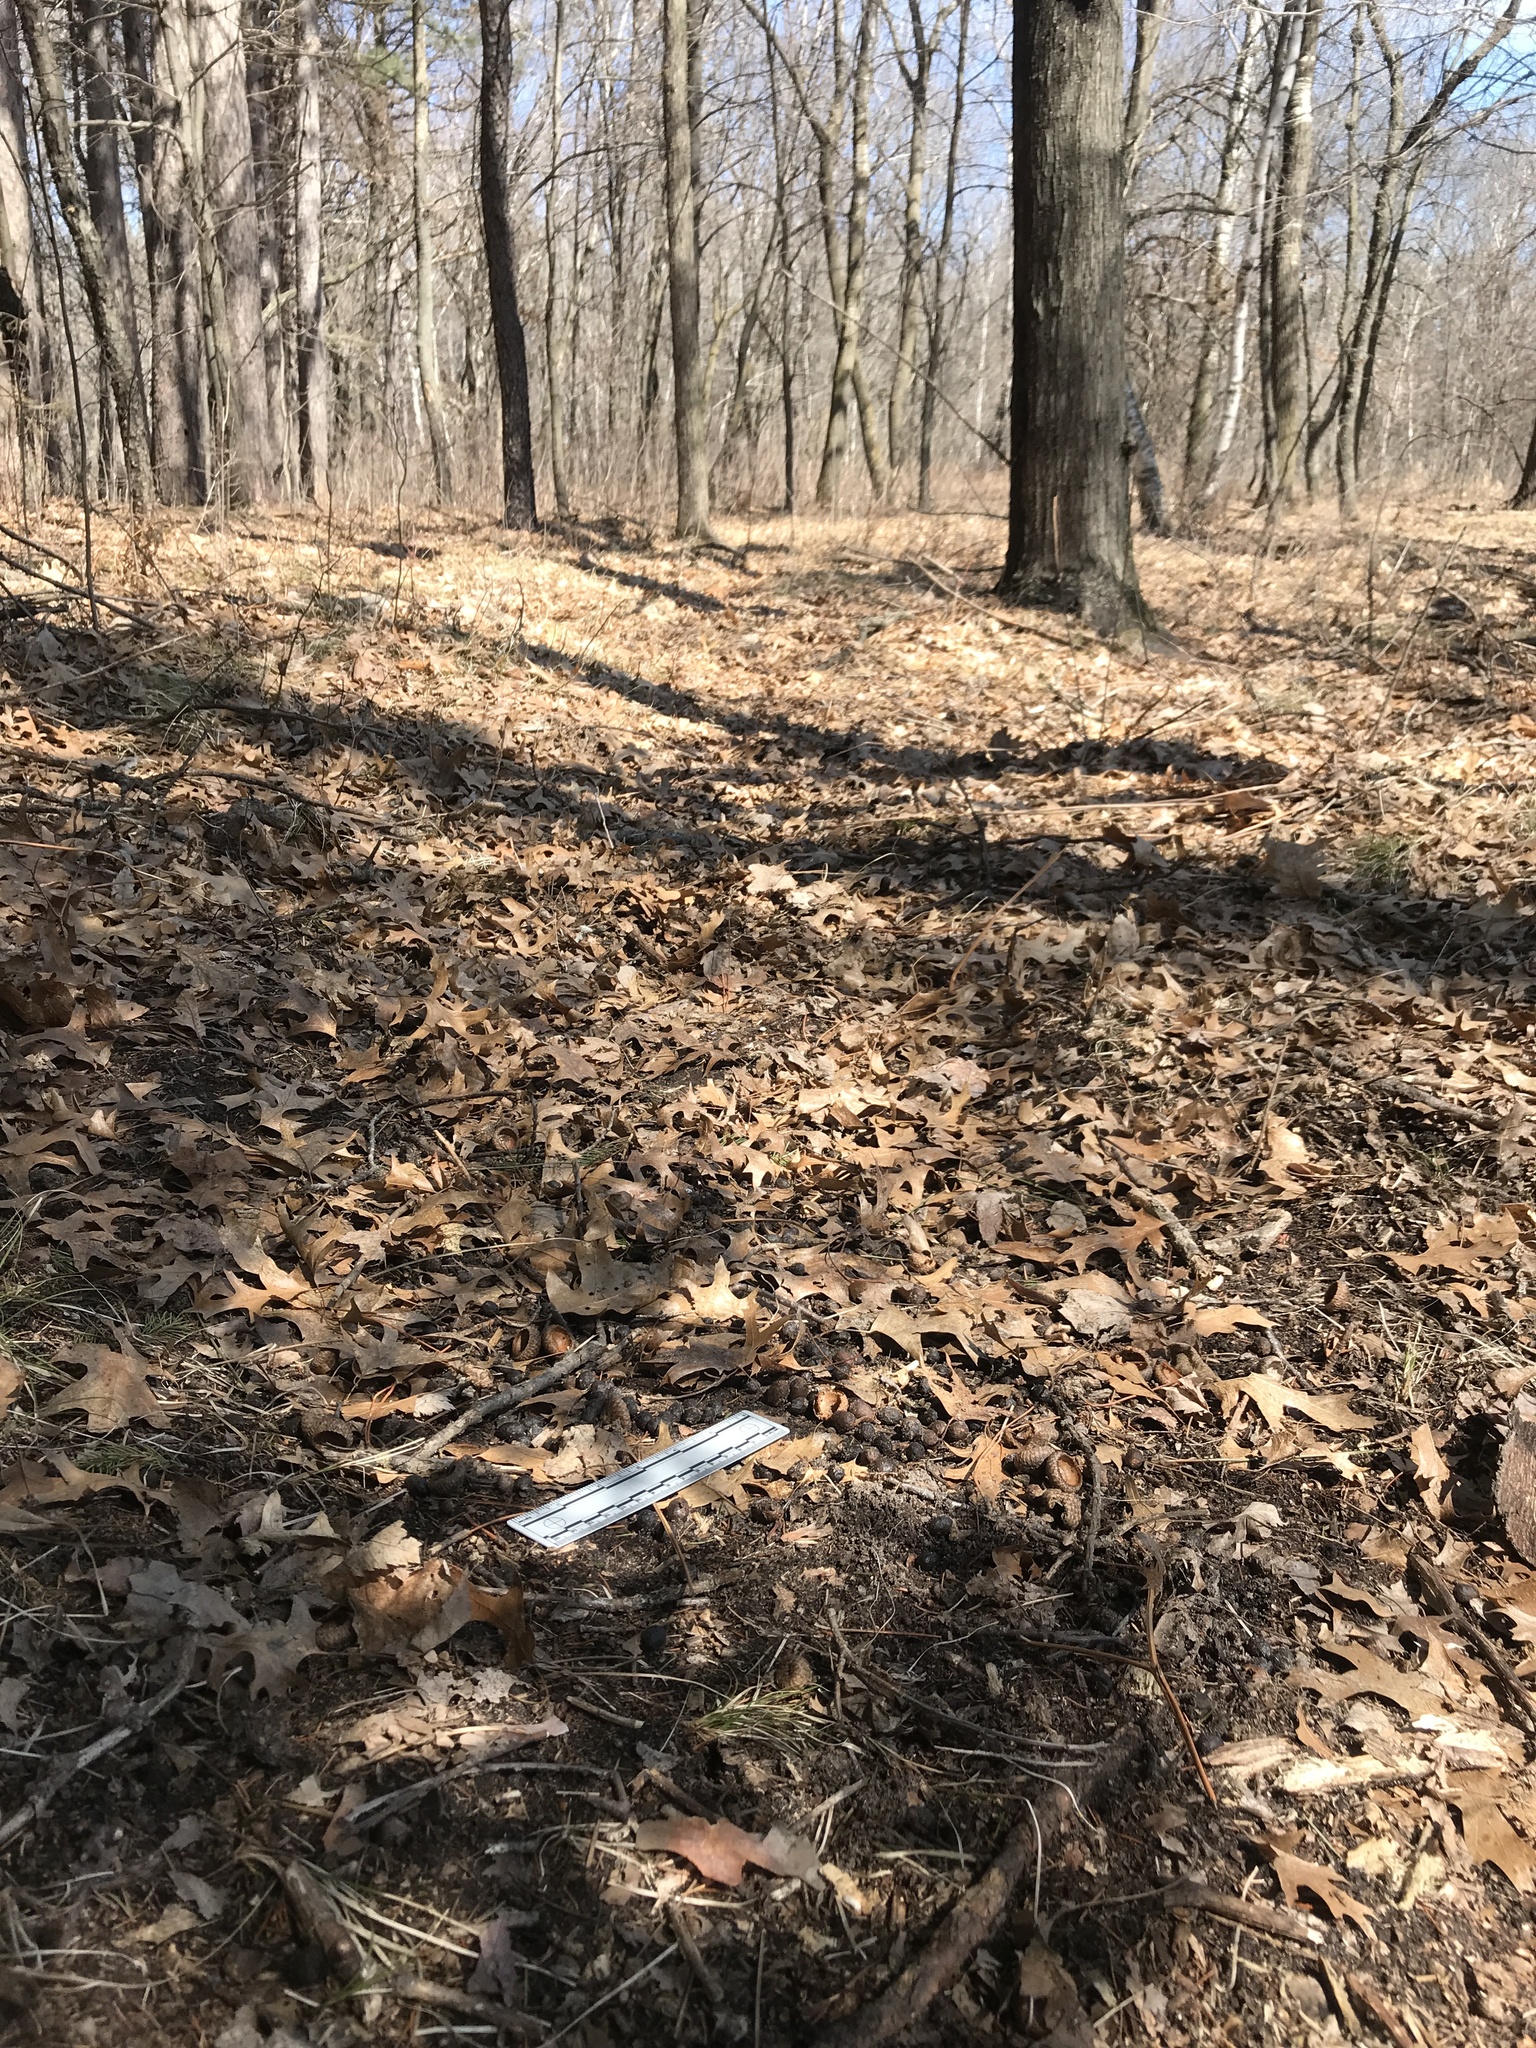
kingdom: Animalia
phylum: Chordata
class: Mammalia
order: Artiodactyla
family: Cervidae
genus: Odocoileus
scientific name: Odocoileus virginianus
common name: White-tailed deer
